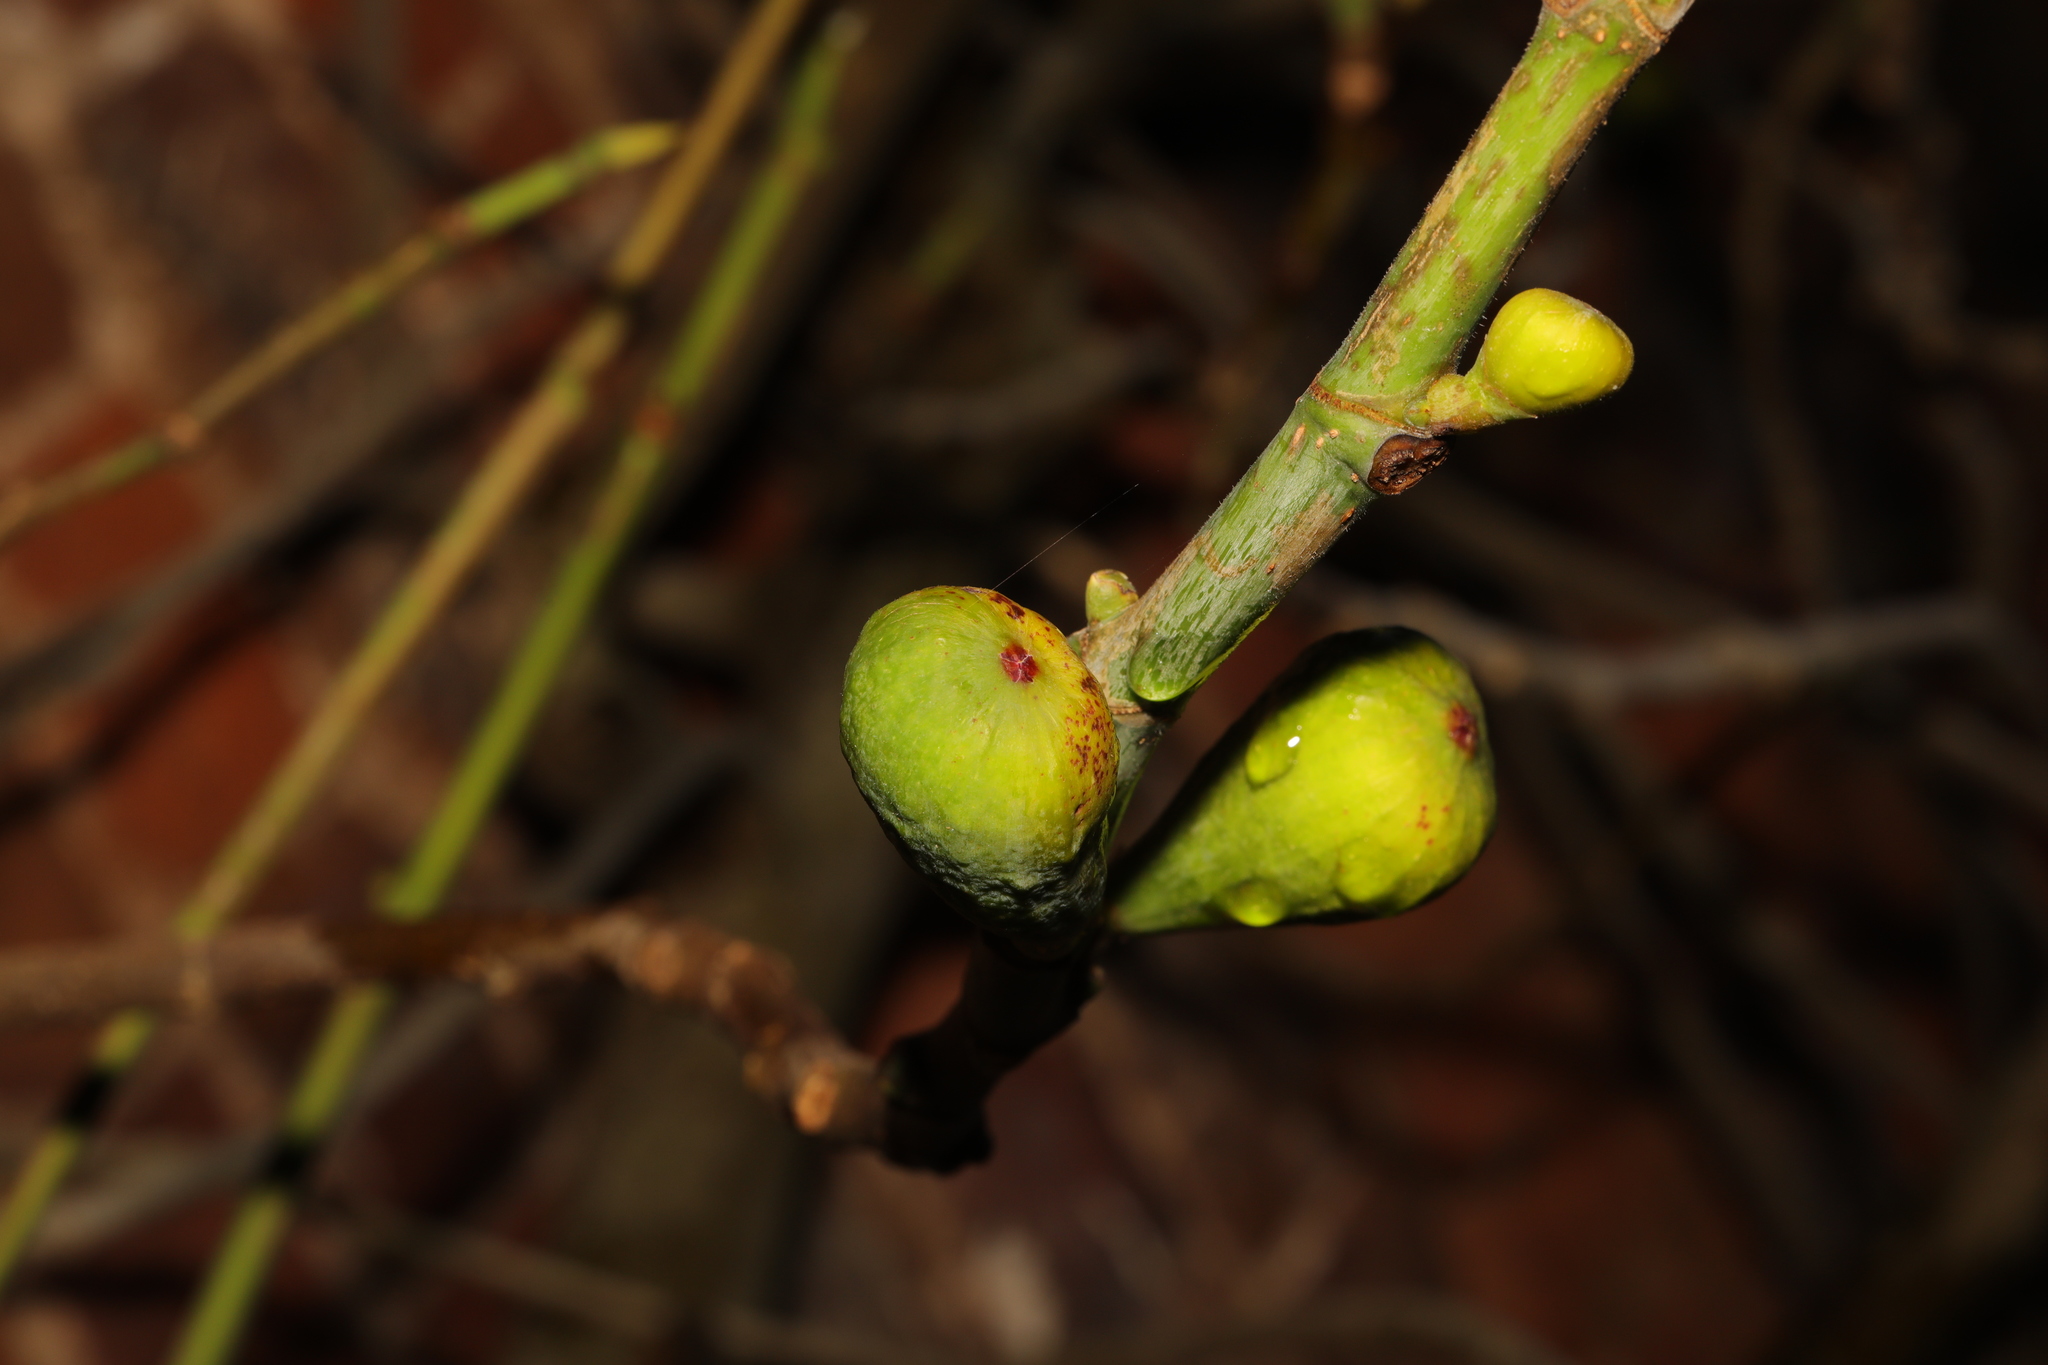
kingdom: Plantae
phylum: Tracheophyta
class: Magnoliopsida
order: Rosales
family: Moraceae
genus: Ficus
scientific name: Ficus carica
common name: Fig
